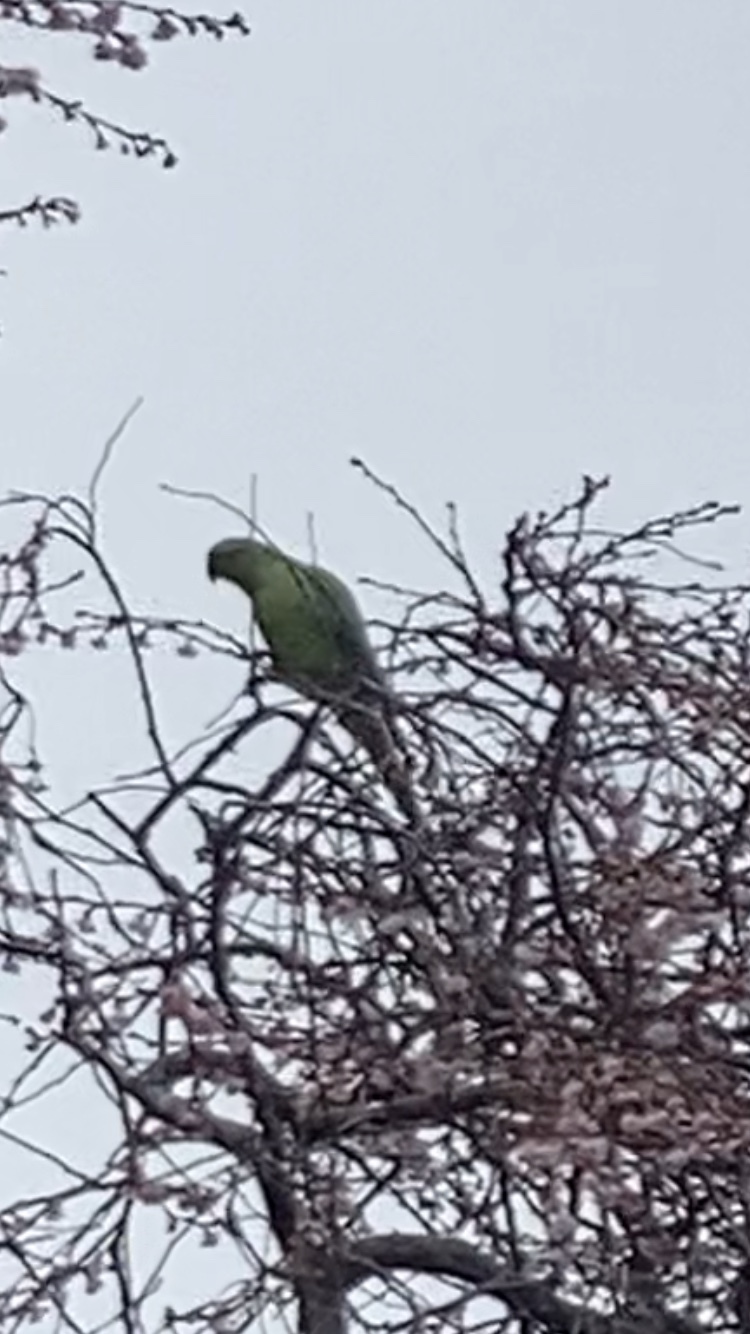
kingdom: Animalia
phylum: Chordata
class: Aves
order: Psittaciformes
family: Psittacidae
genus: Psittacula
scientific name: Psittacula krameri
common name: Rose-ringed parakeet
